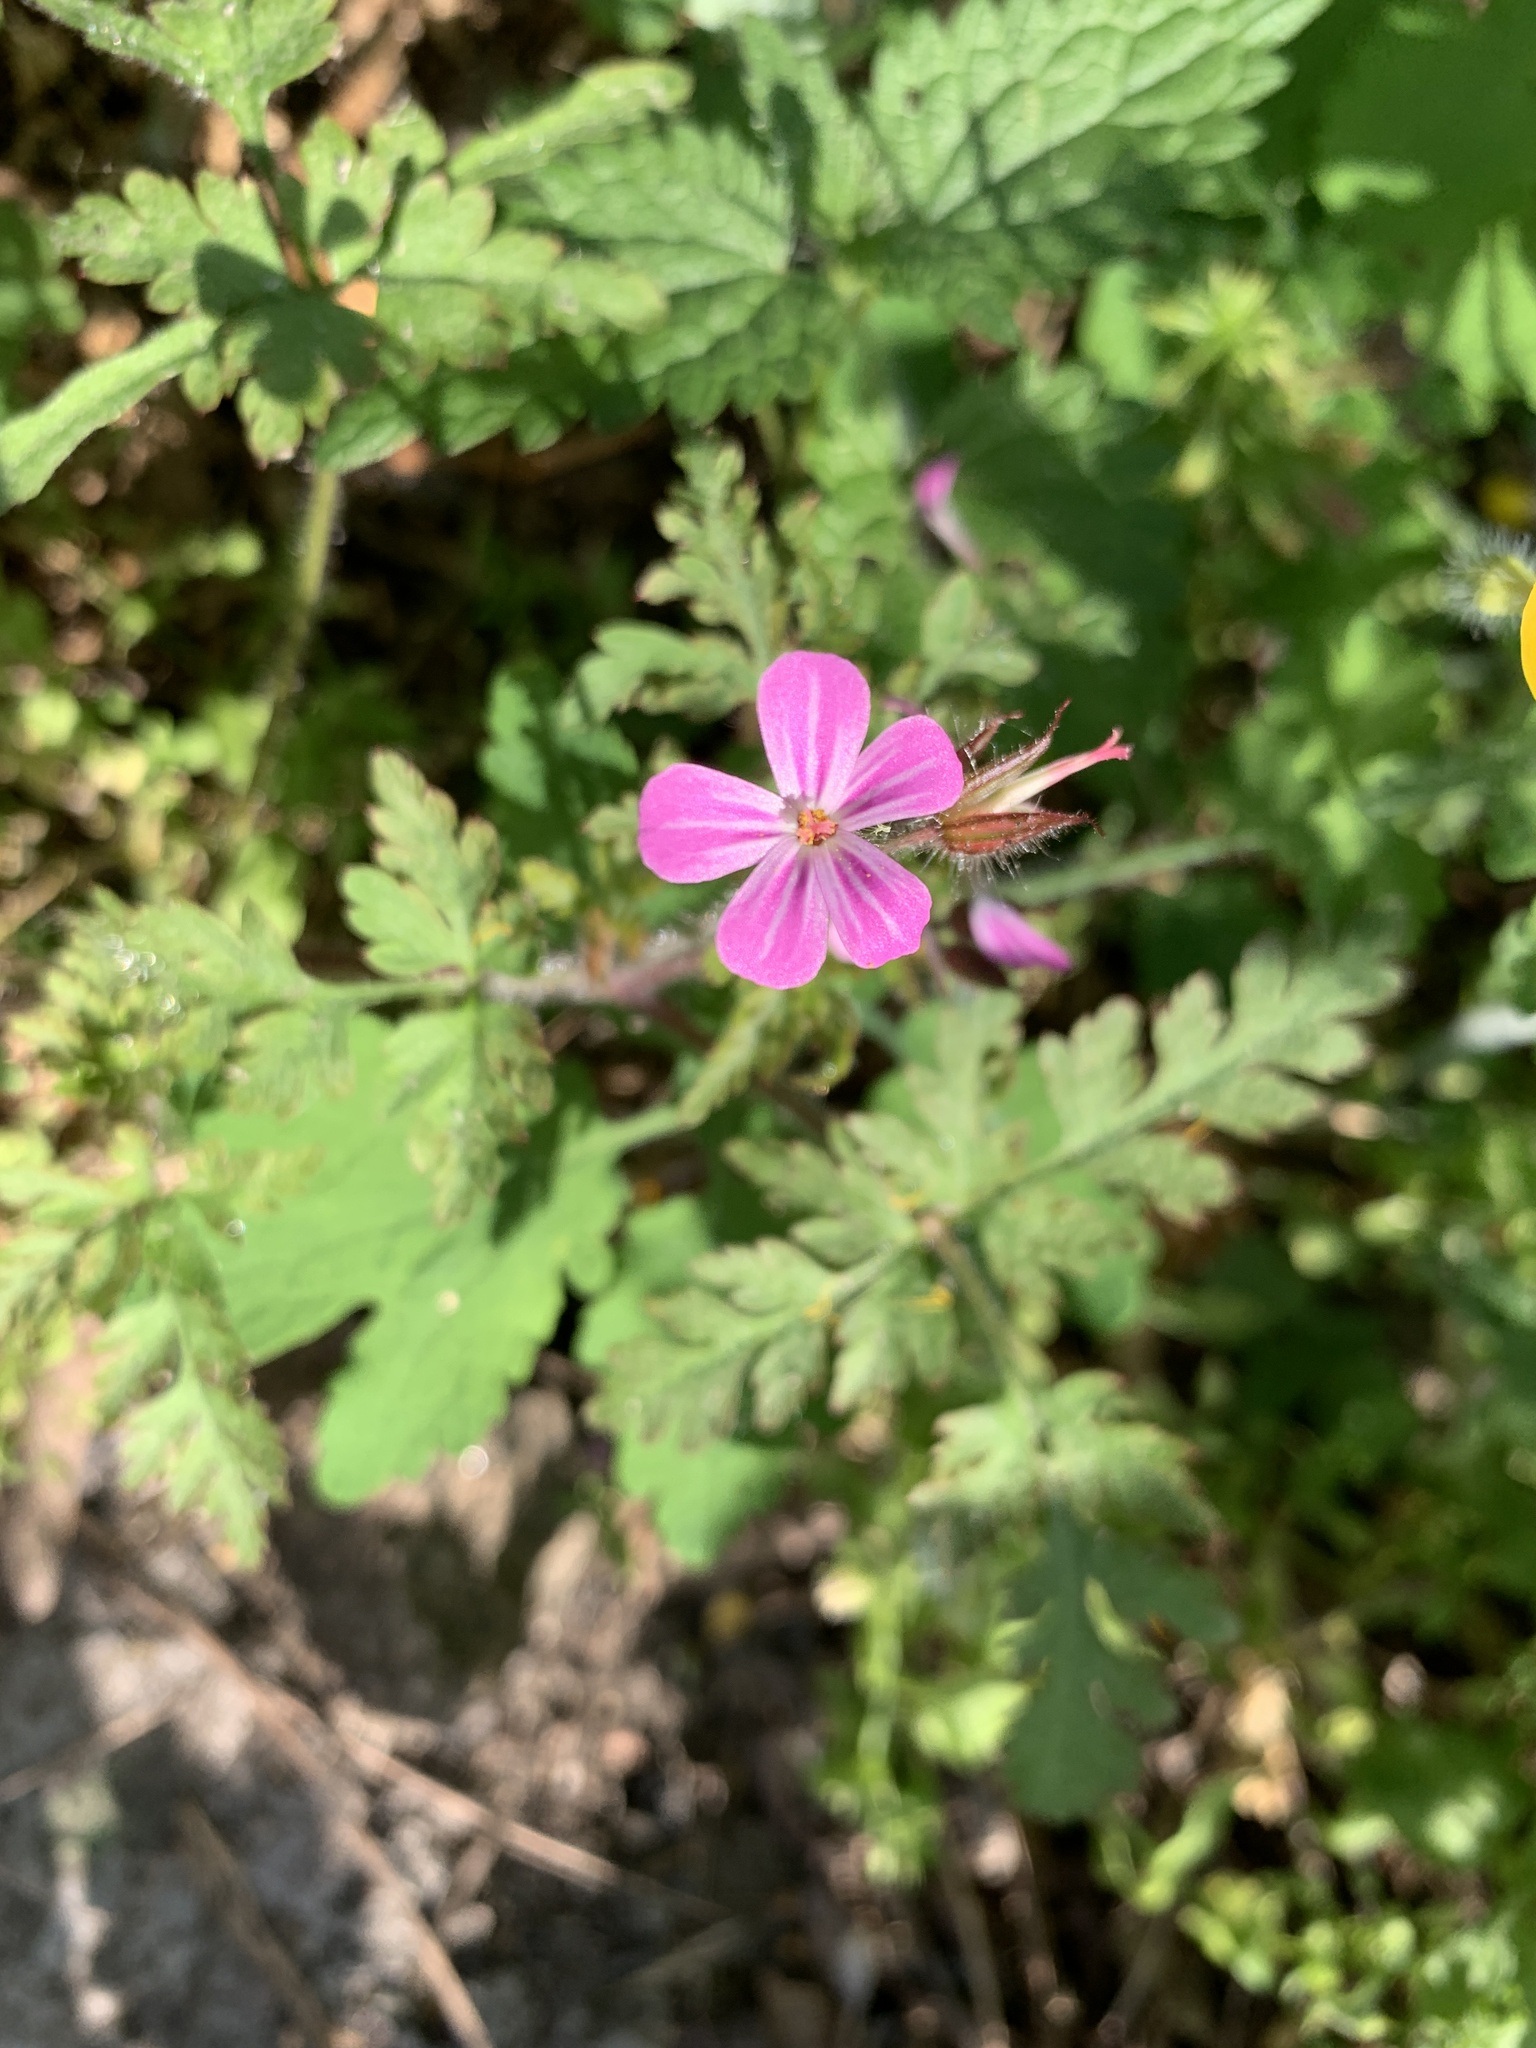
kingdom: Plantae
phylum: Tracheophyta
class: Magnoliopsida
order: Geraniales
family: Geraniaceae
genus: Geranium
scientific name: Geranium robertianum
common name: Herb-robert
